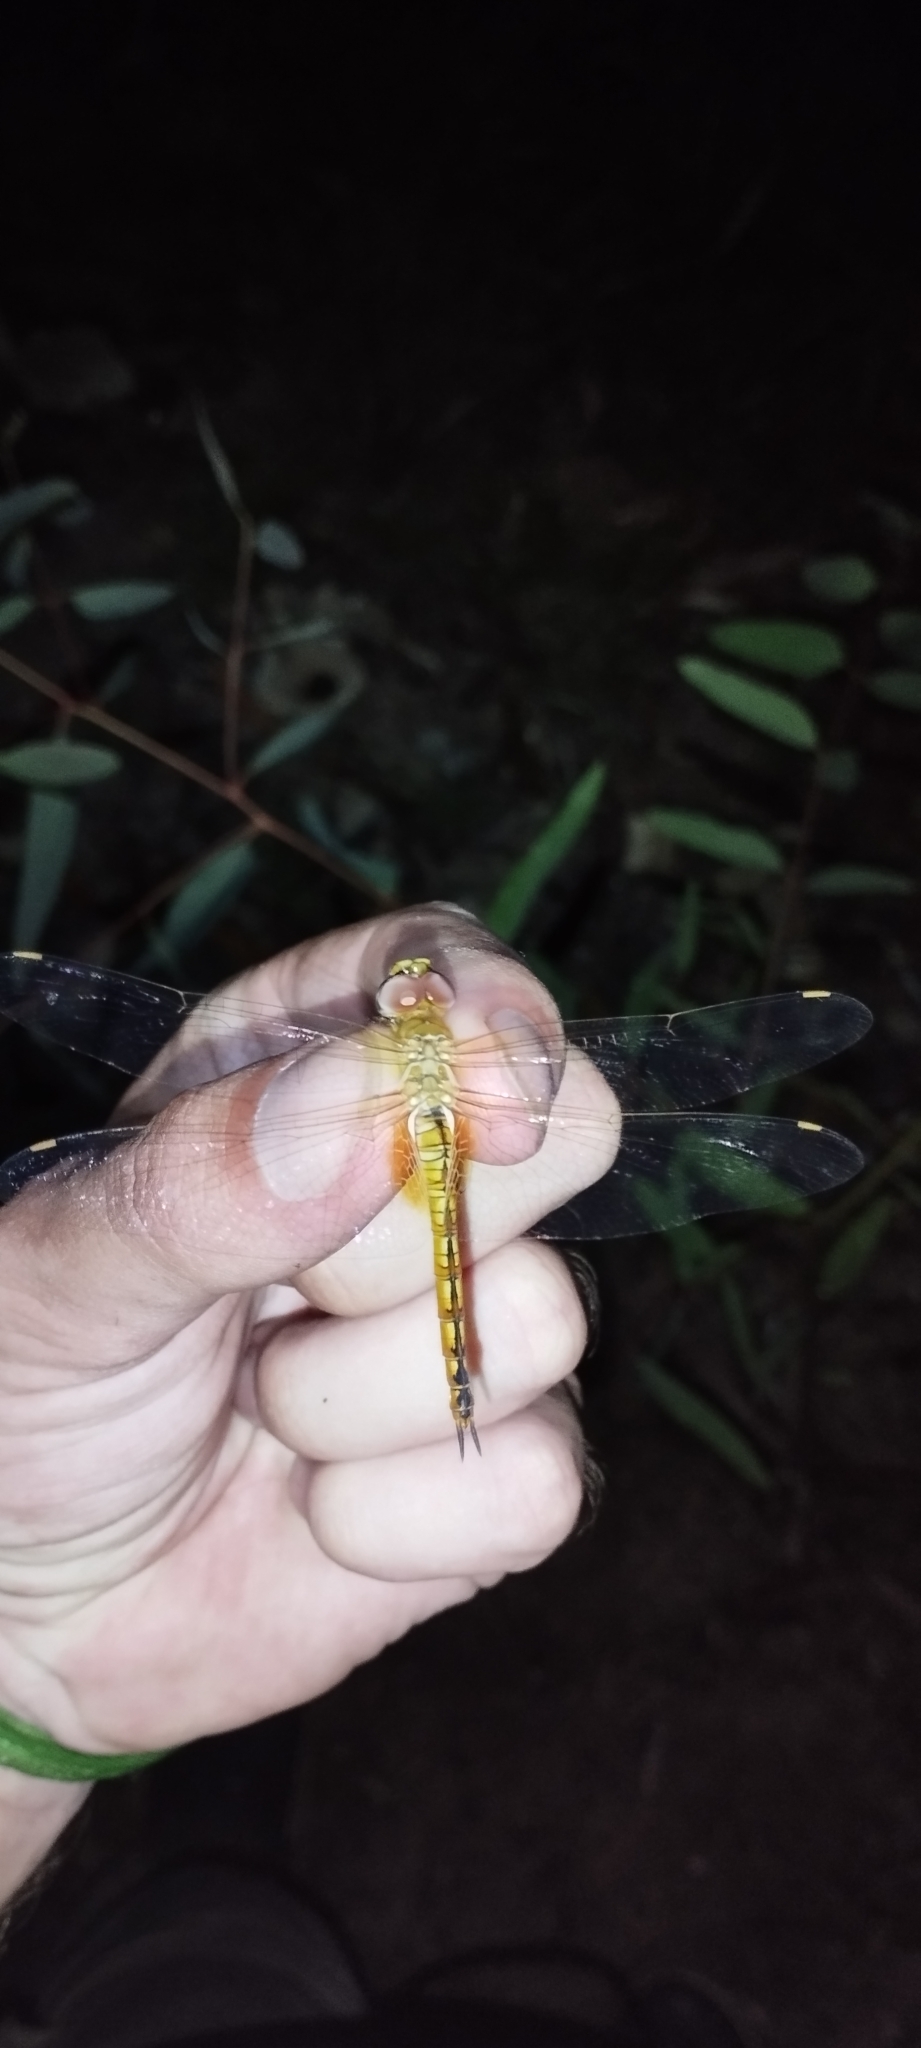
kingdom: Animalia
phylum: Arthropoda
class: Insecta
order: Odonata
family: Libellulidae
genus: Pantala
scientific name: Pantala flavescens
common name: Wandering glider
